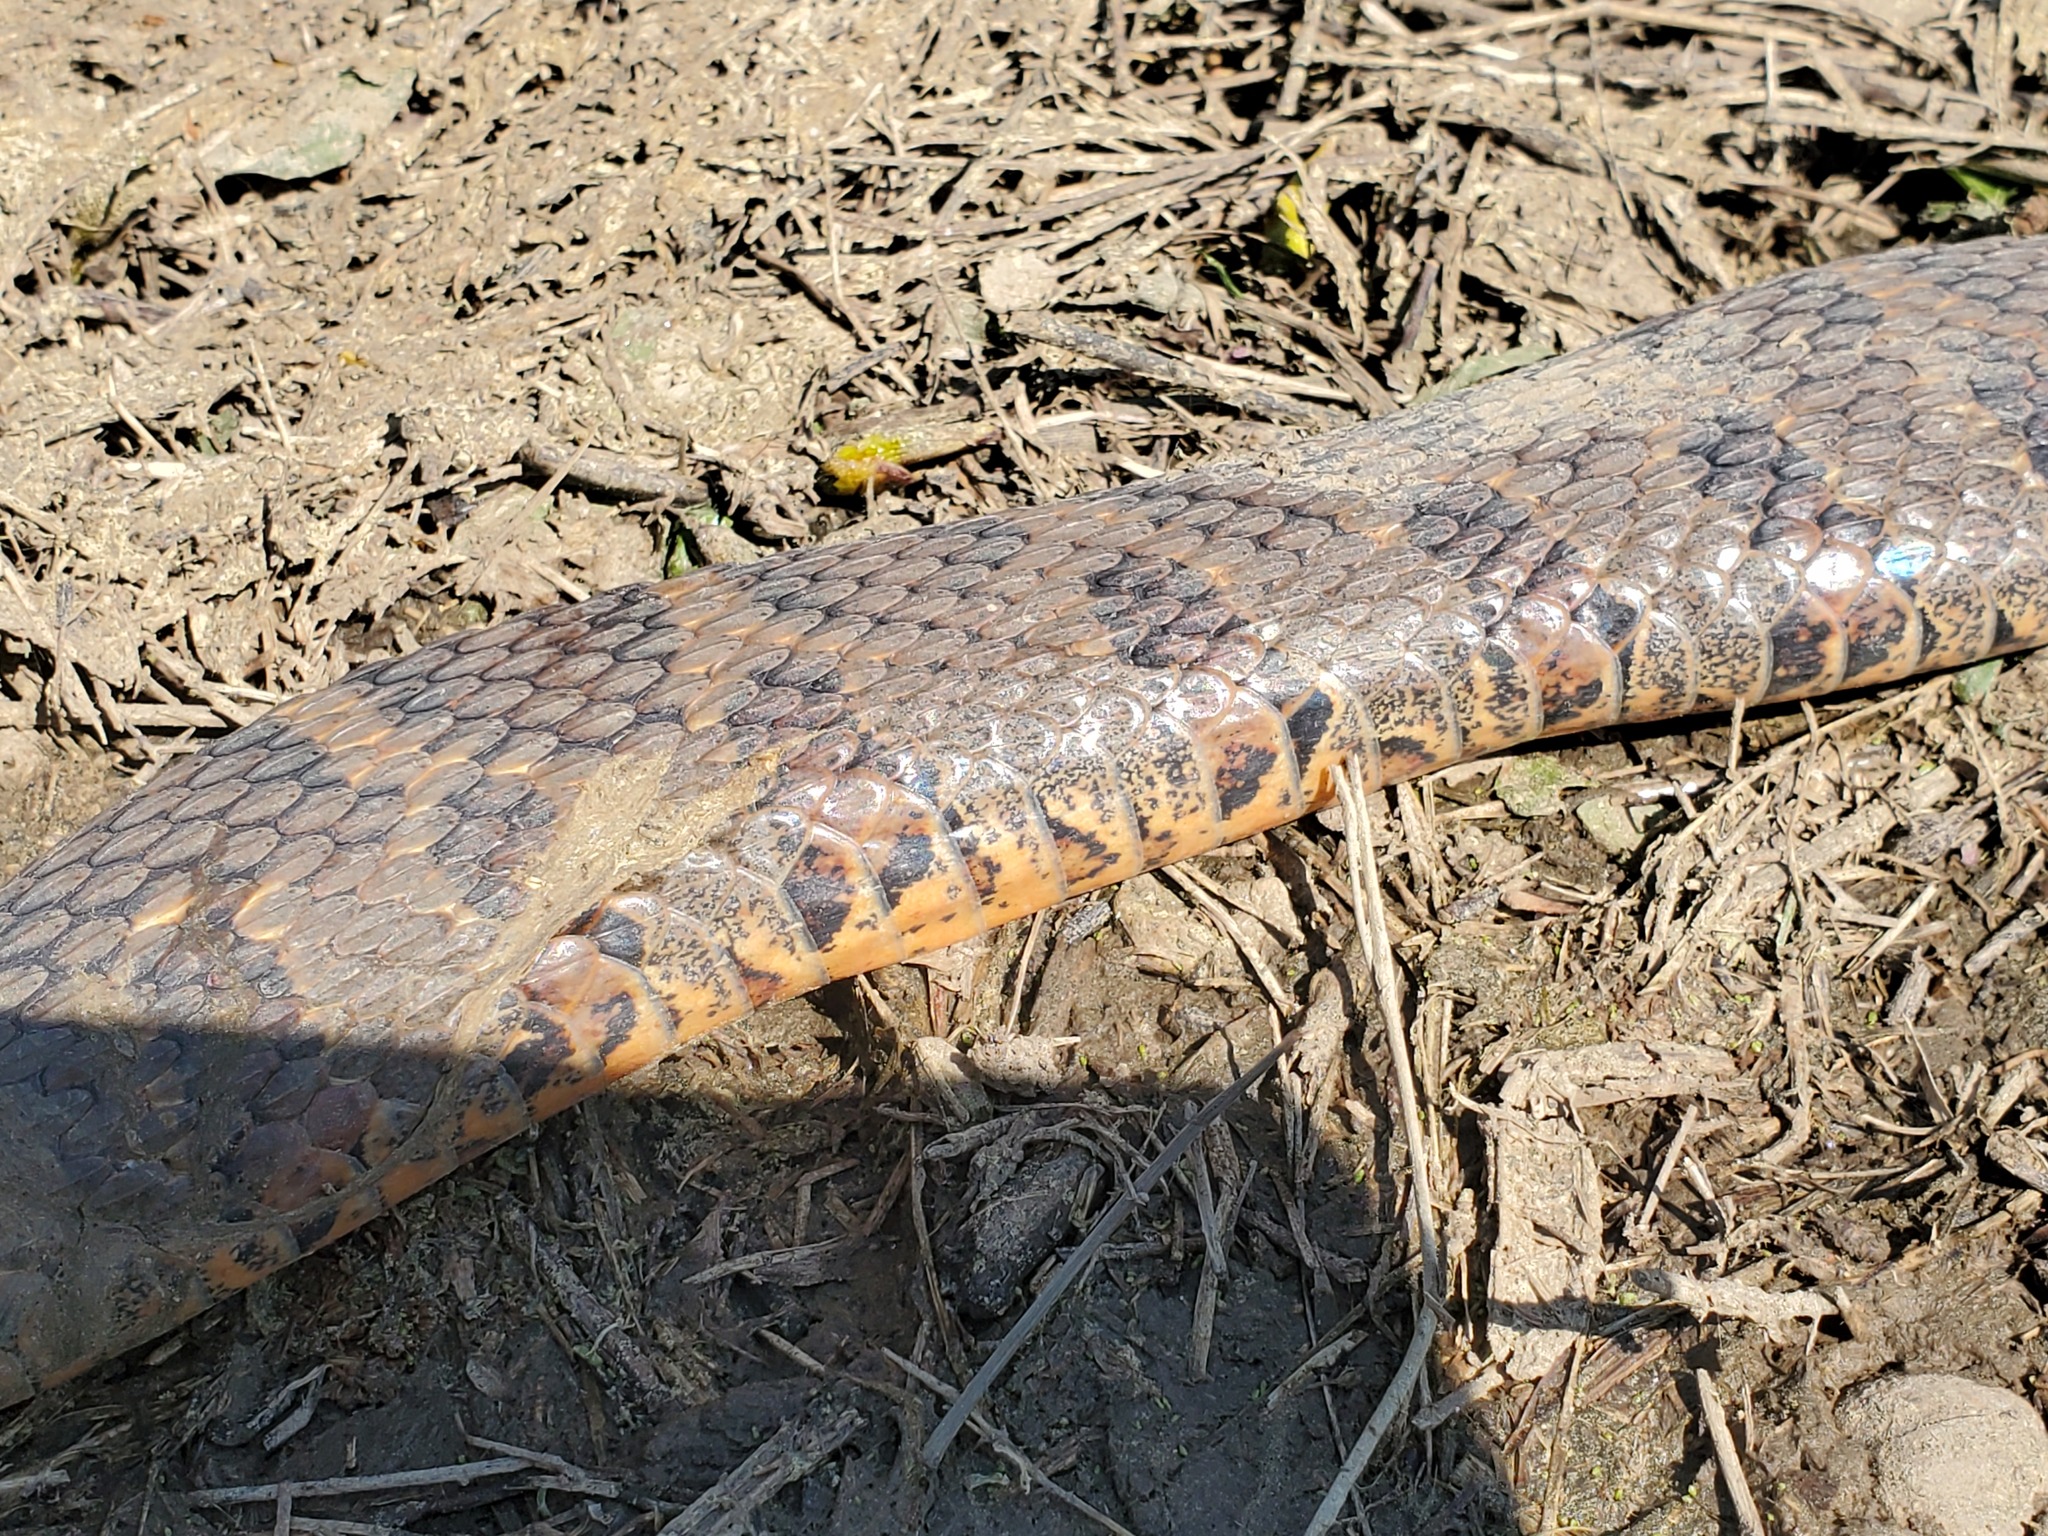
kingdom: Animalia
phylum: Chordata
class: Squamata
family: Colubridae
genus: Nerodia
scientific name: Nerodia sipedon
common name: Northern water snake
